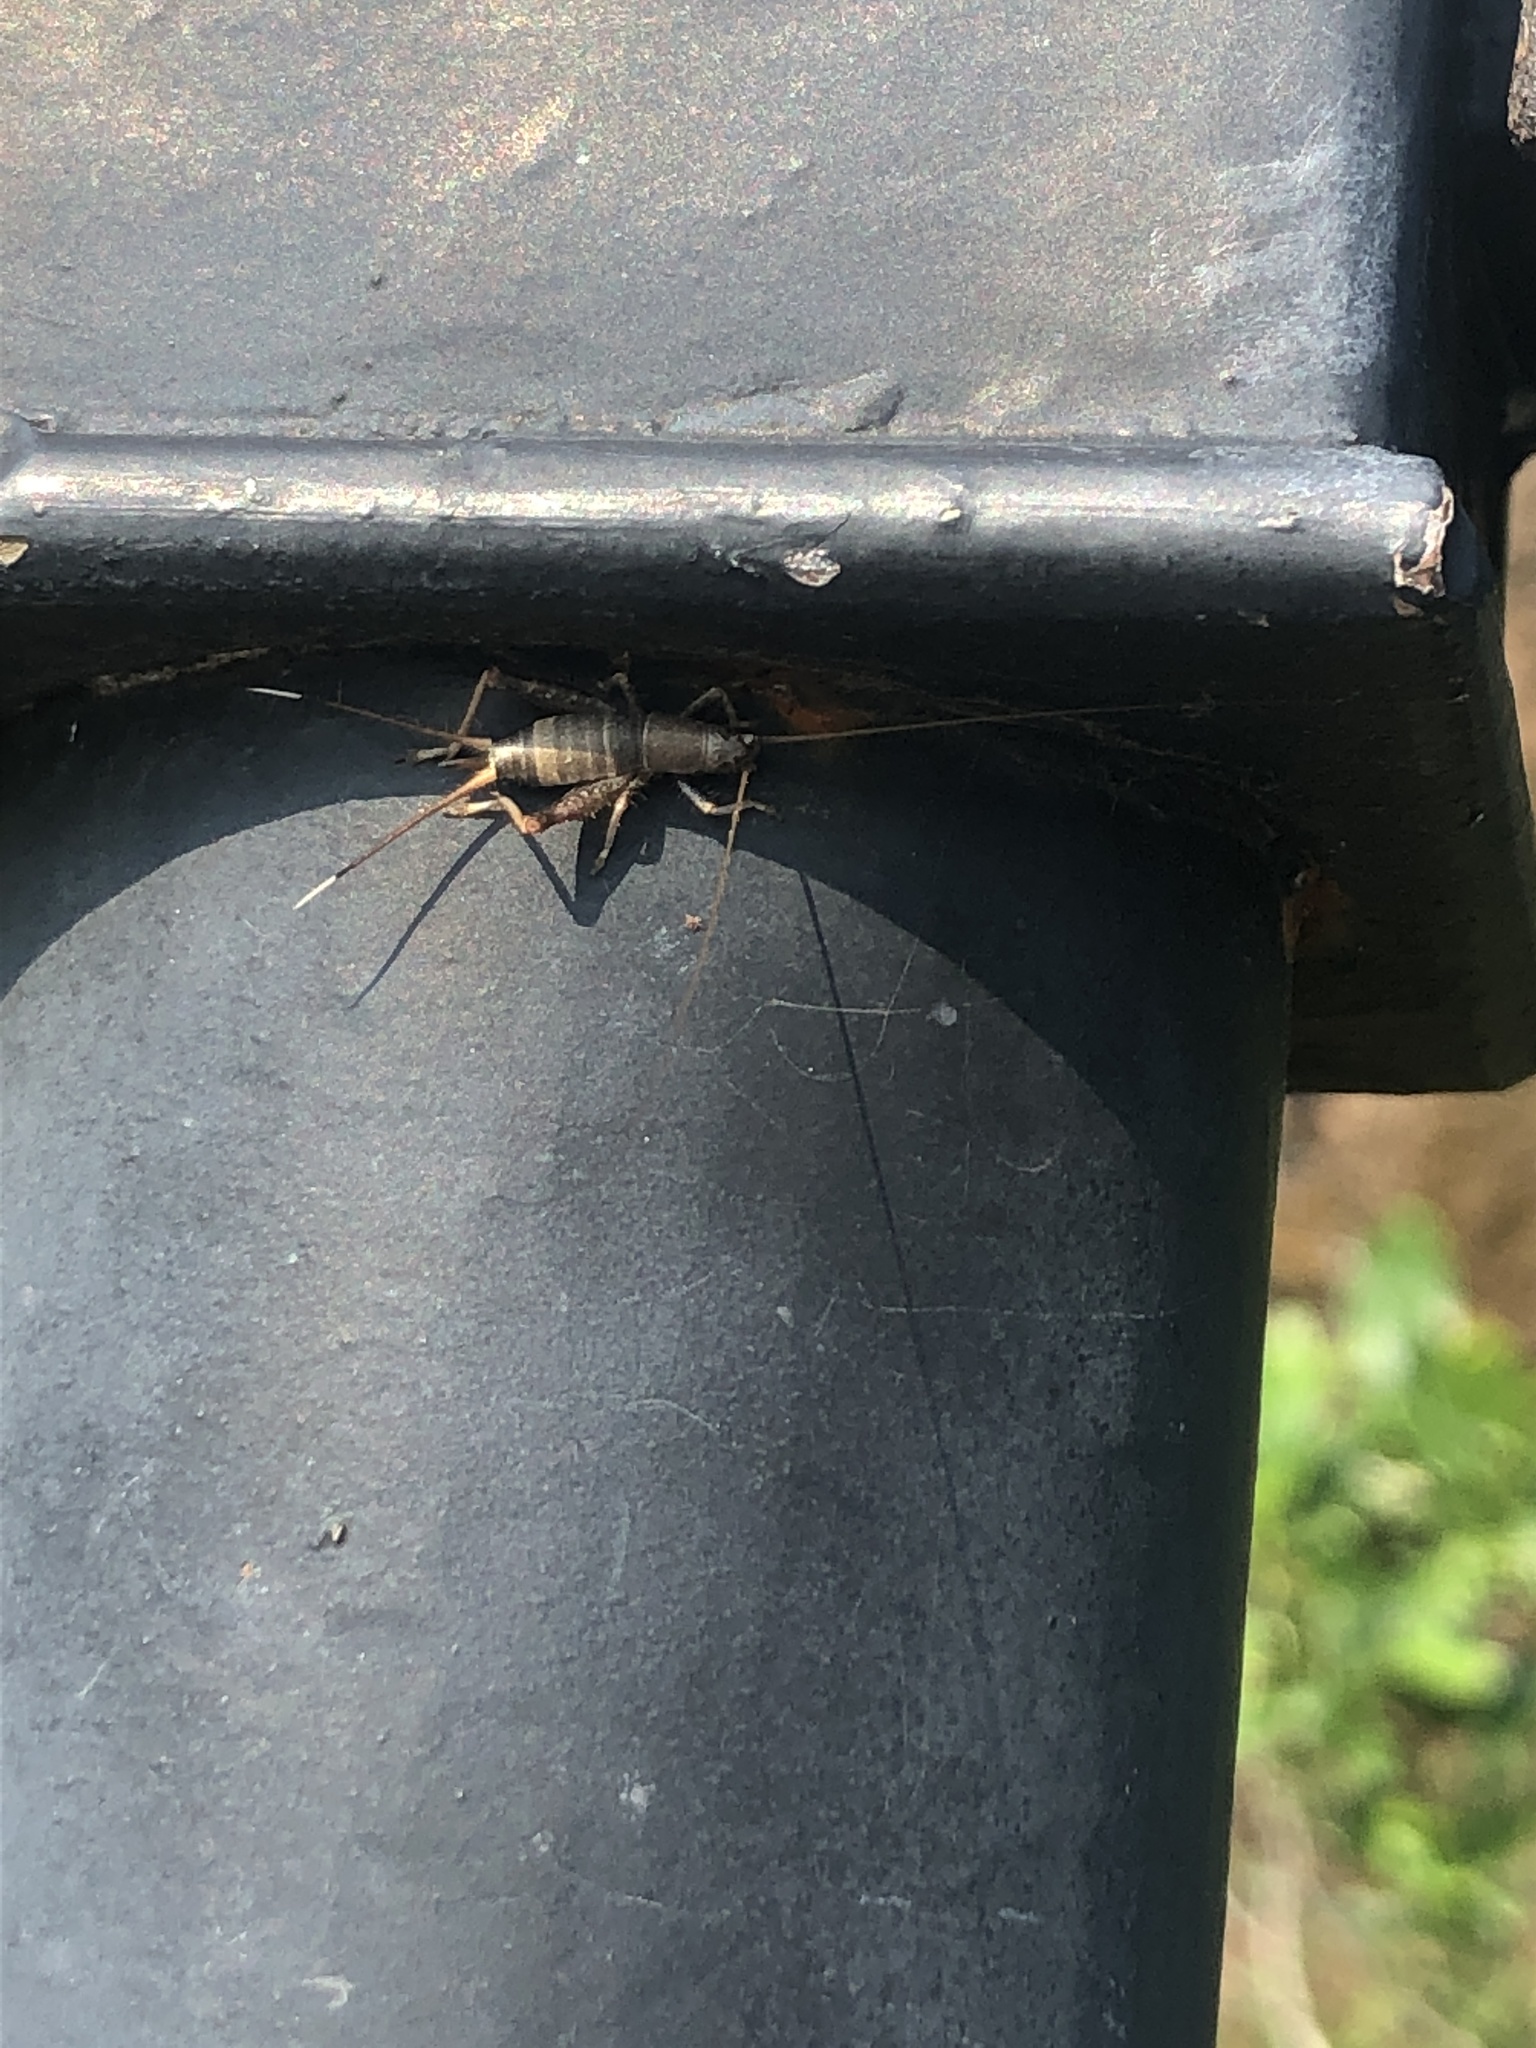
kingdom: Animalia
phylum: Arthropoda
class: Insecta
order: Orthoptera
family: Mogoplistidae
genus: Ornebius
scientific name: Ornebius fuscicerci
